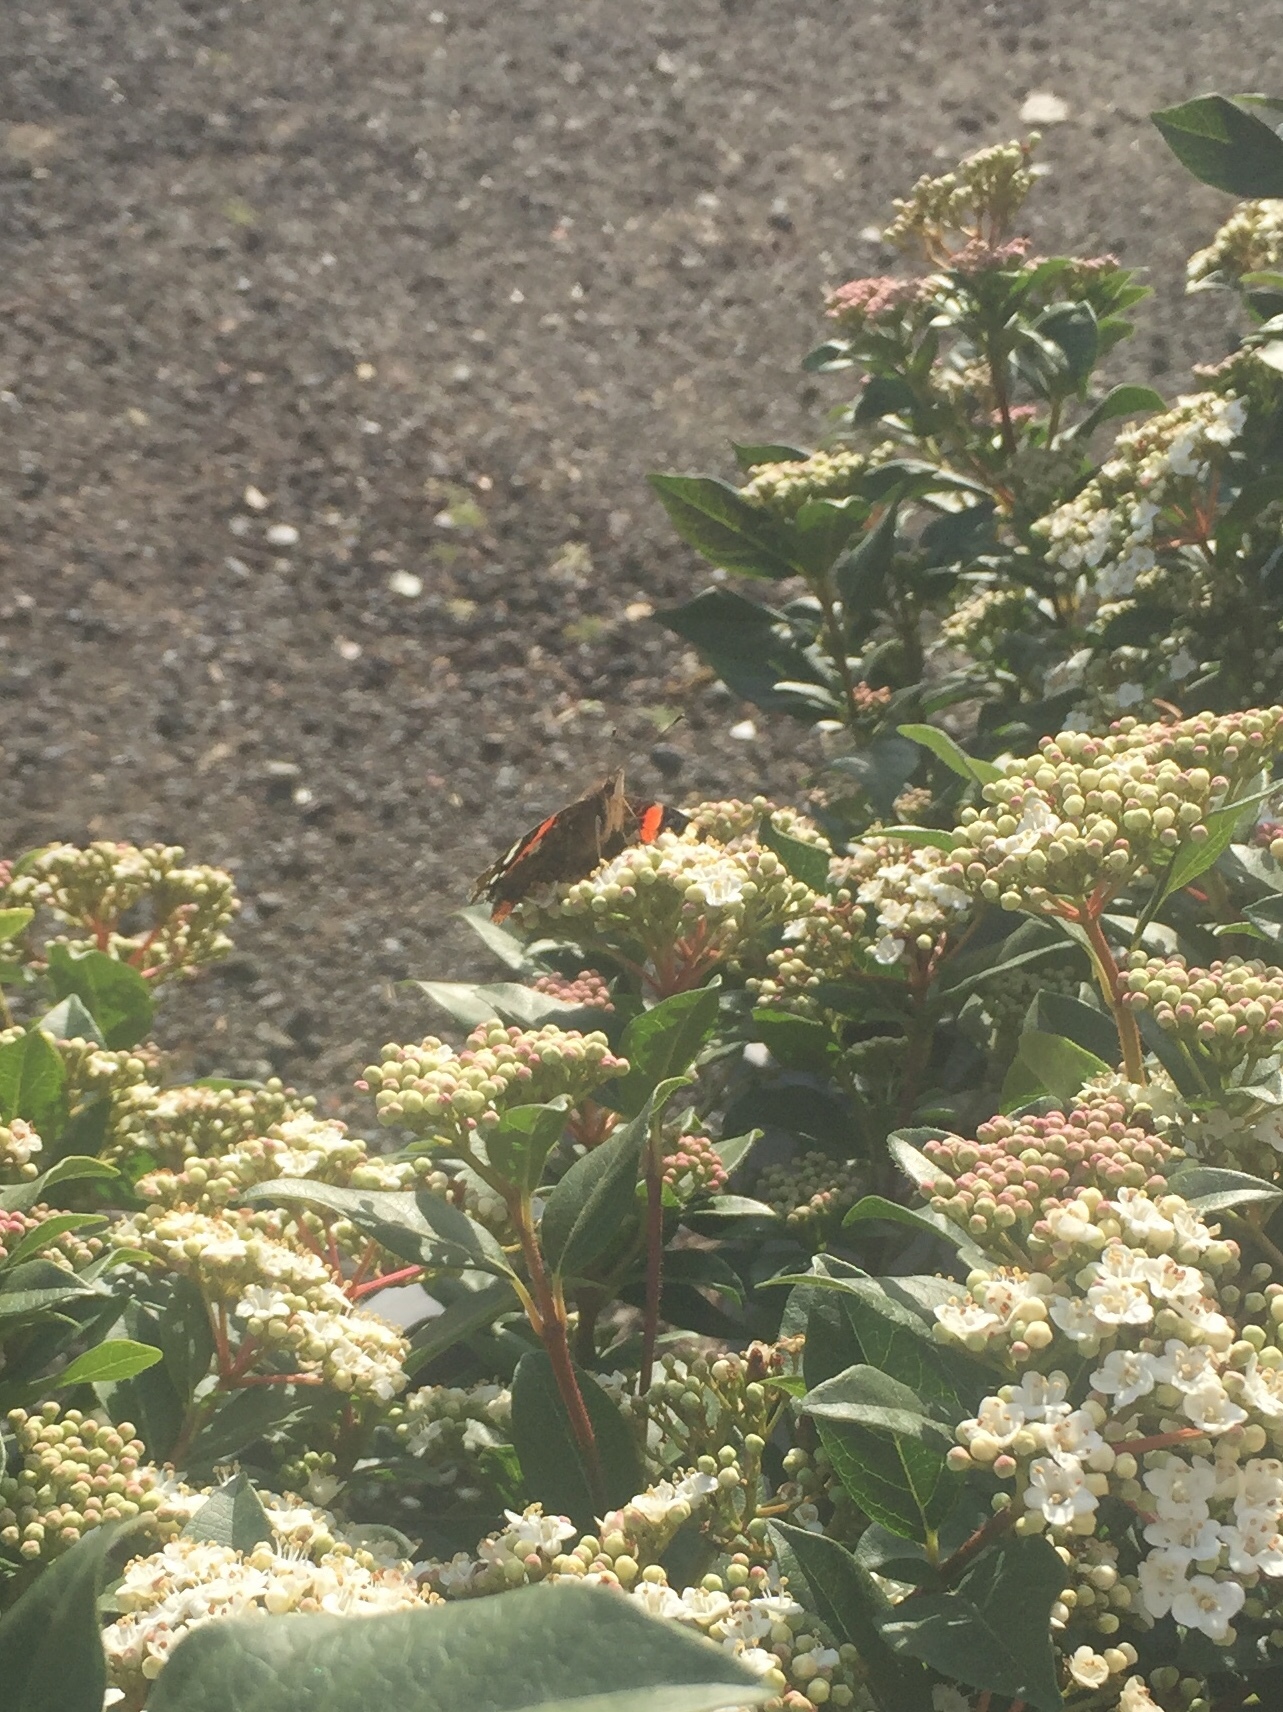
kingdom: Animalia
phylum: Arthropoda
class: Insecta
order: Lepidoptera
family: Nymphalidae
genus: Vanessa
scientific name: Vanessa atalanta
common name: Red admiral
